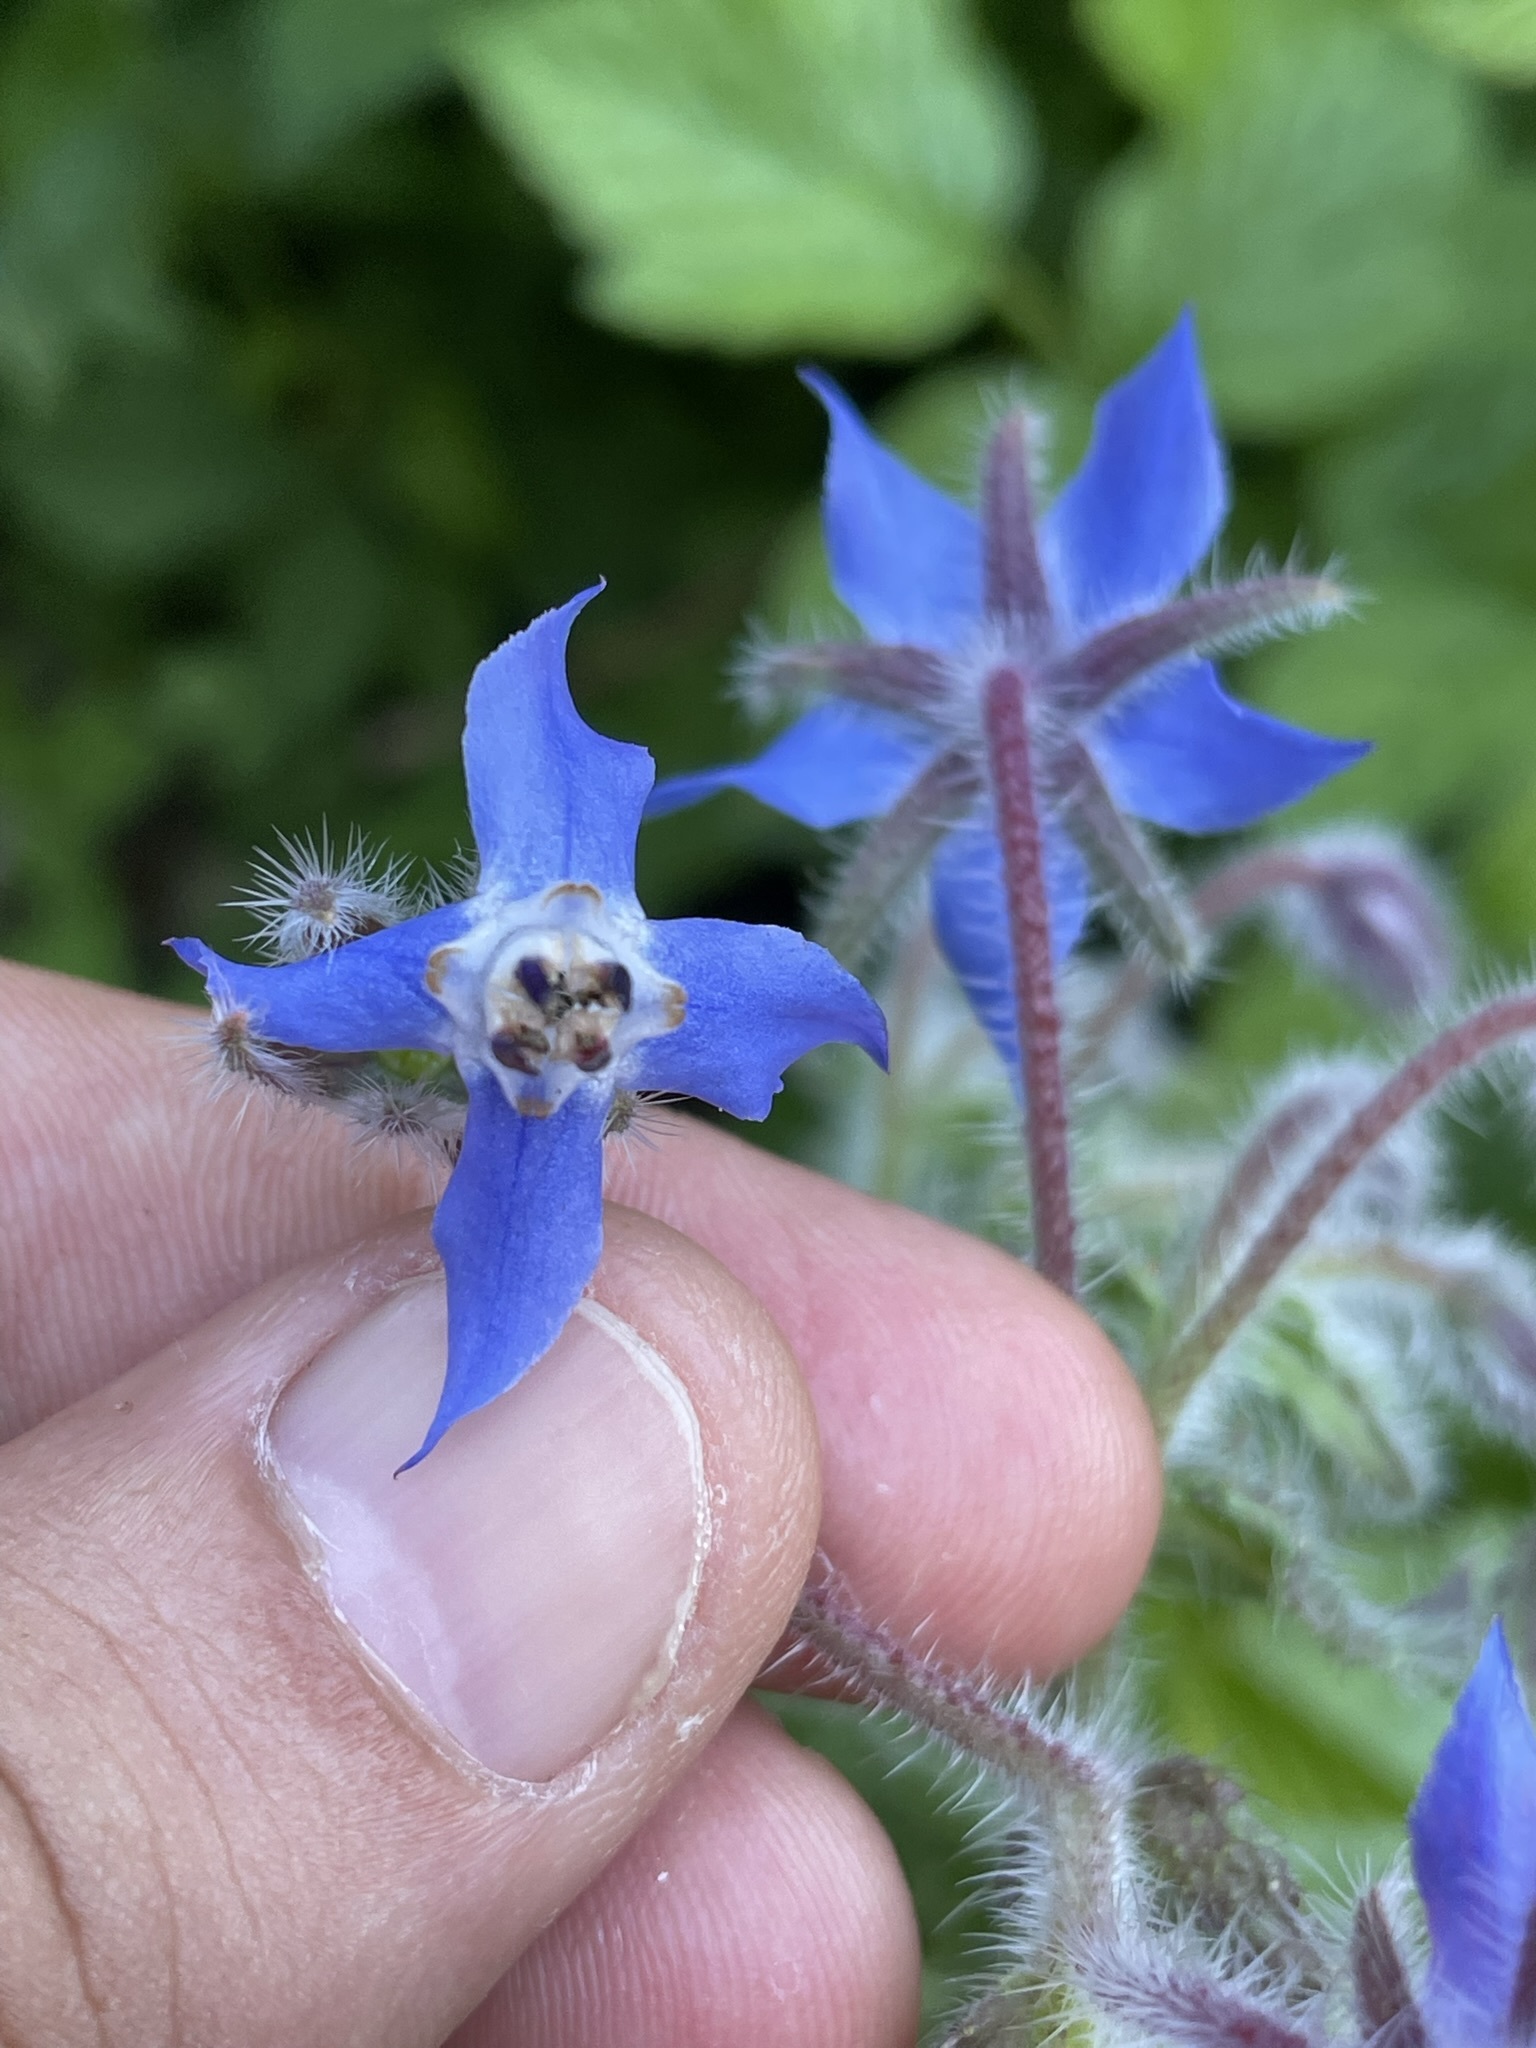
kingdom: Plantae
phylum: Tracheophyta
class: Magnoliopsida
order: Boraginales
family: Boraginaceae
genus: Borago
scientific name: Borago officinalis
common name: Borage
